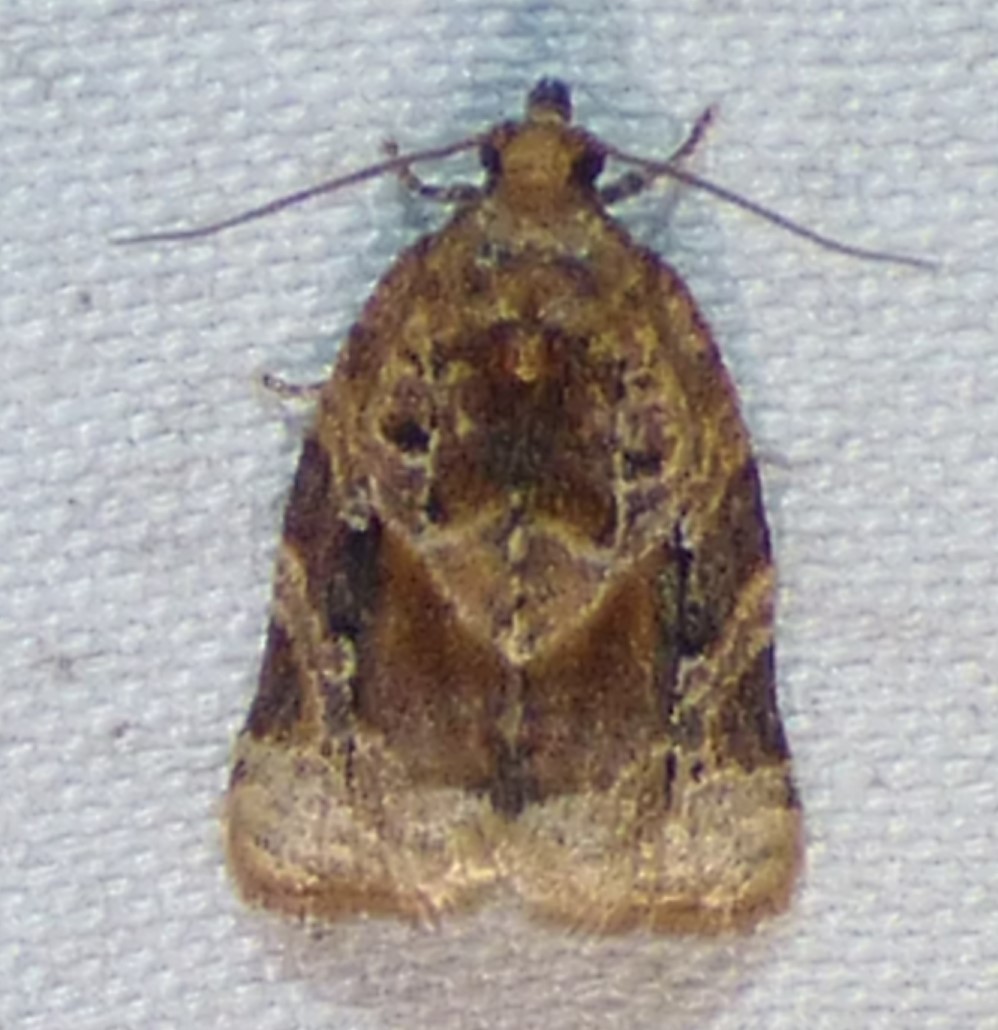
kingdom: Animalia
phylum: Arthropoda
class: Insecta
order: Lepidoptera
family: Tortricidae
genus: Argyrotaenia
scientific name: Argyrotaenia velutinana
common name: Red-banded leafroller moth
